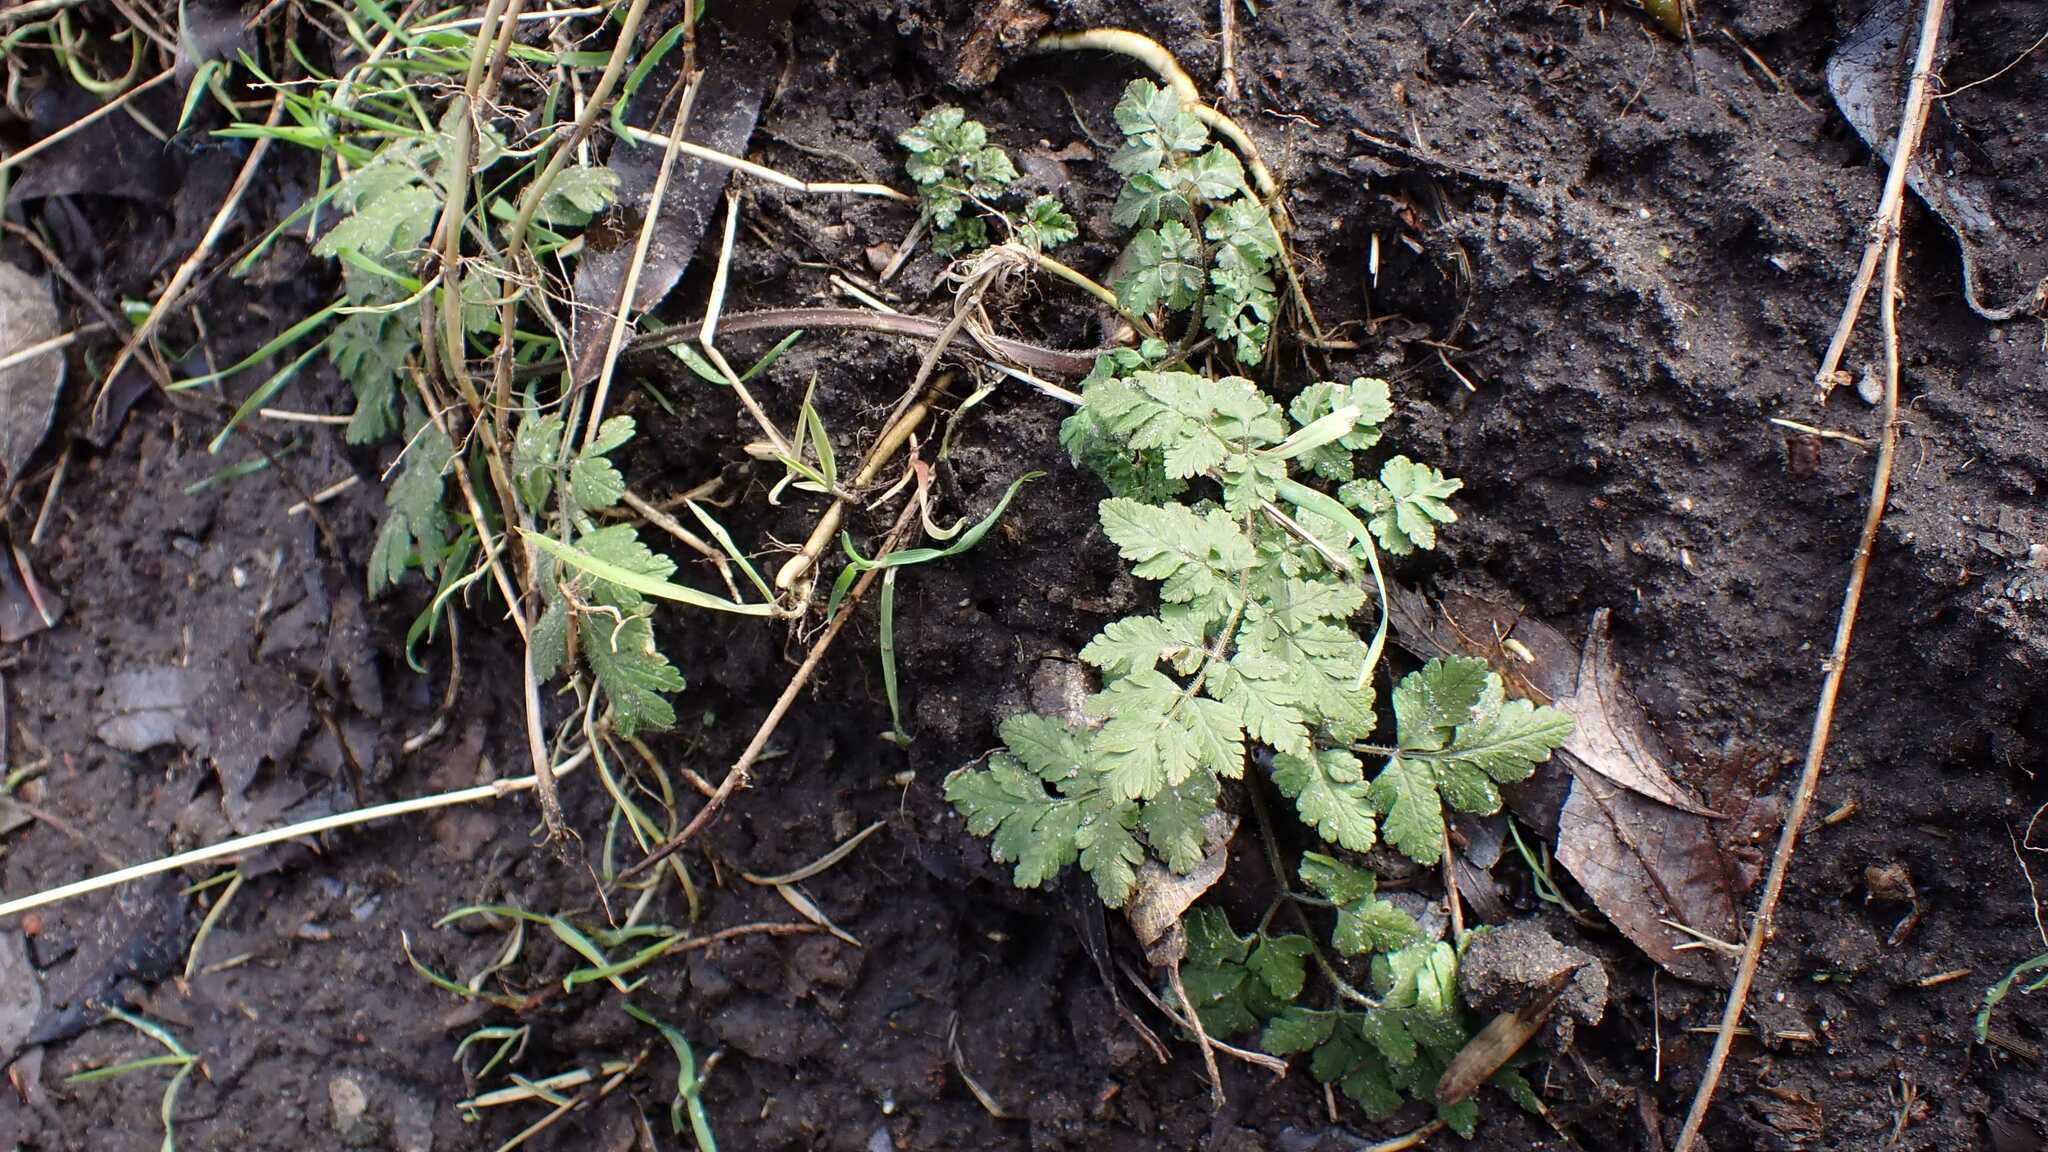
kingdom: Plantae
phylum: Tracheophyta
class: Magnoliopsida
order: Apiales
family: Apiaceae
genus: Chaerophyllum
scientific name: Chaerophyllum temulum
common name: Rough chervil
